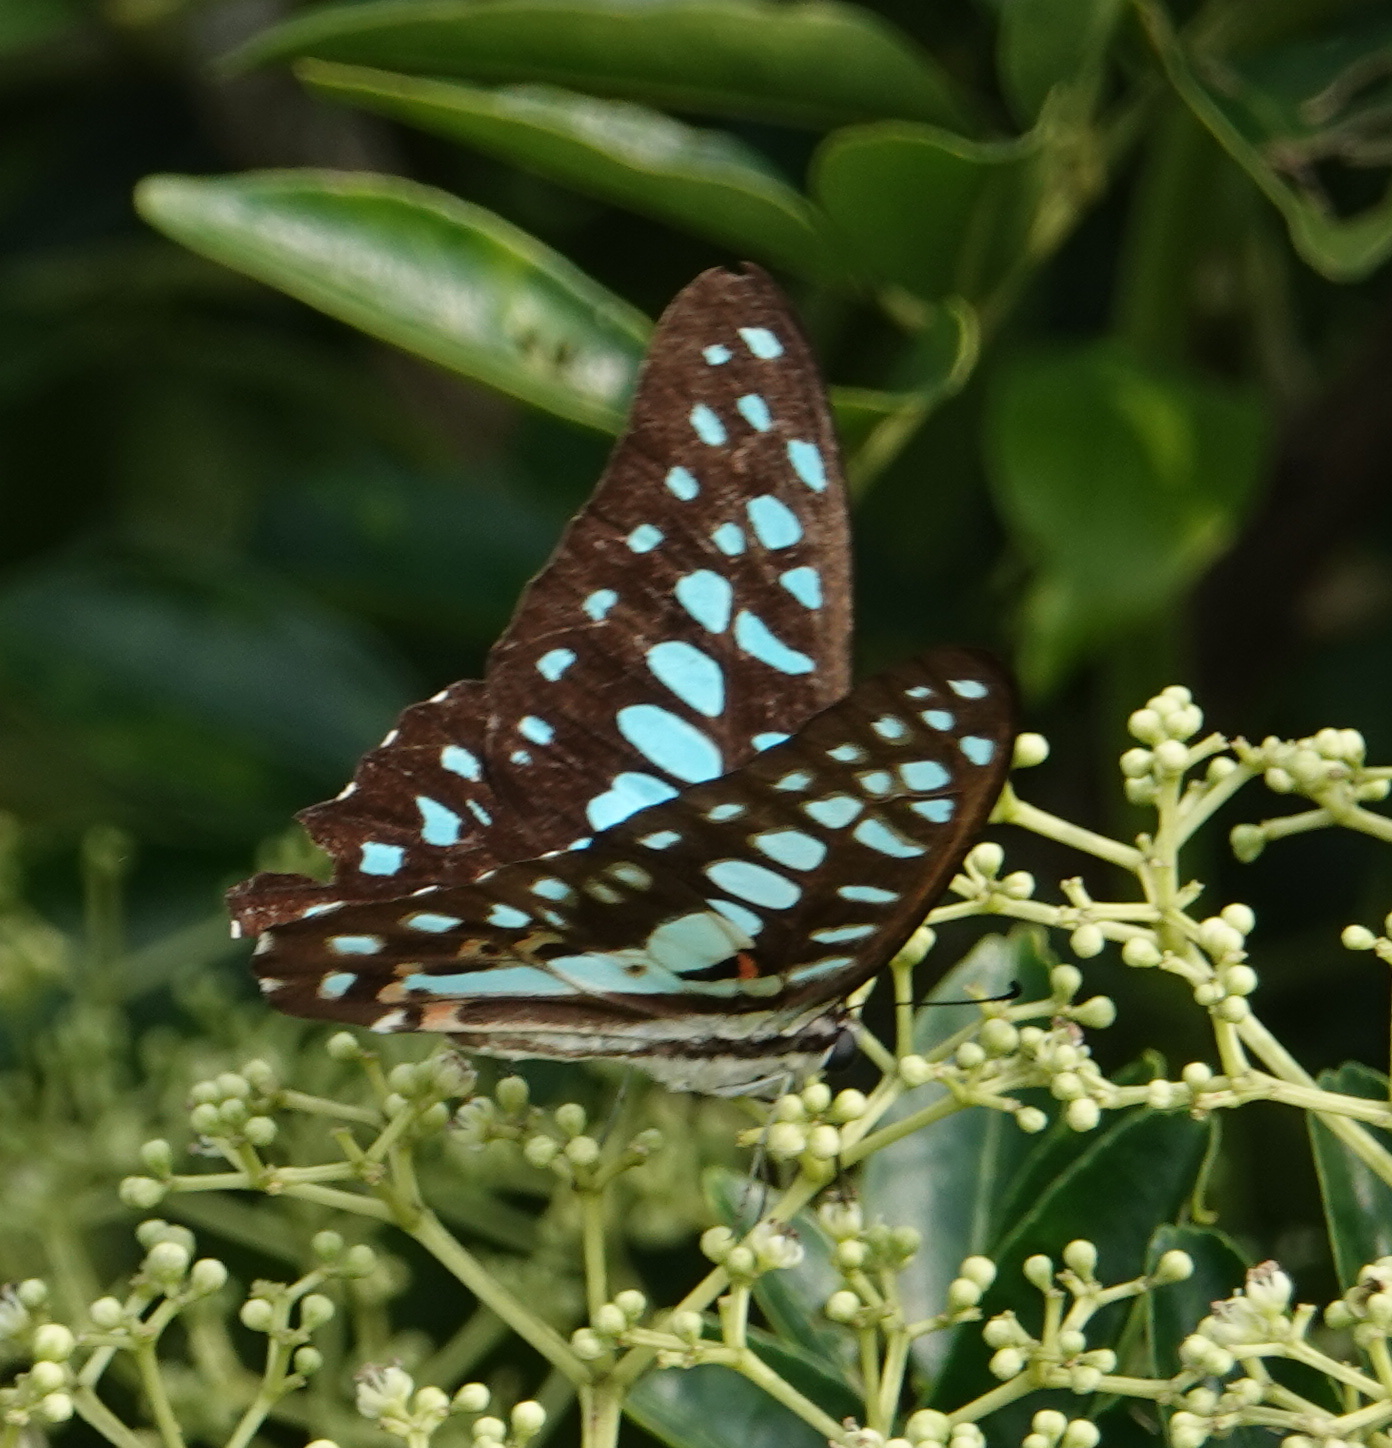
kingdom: Animalia
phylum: Arthropoda
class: Insecta
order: Lepidoptera
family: Papilionidae
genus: Graphium
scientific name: Graphium doson
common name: Common jay
